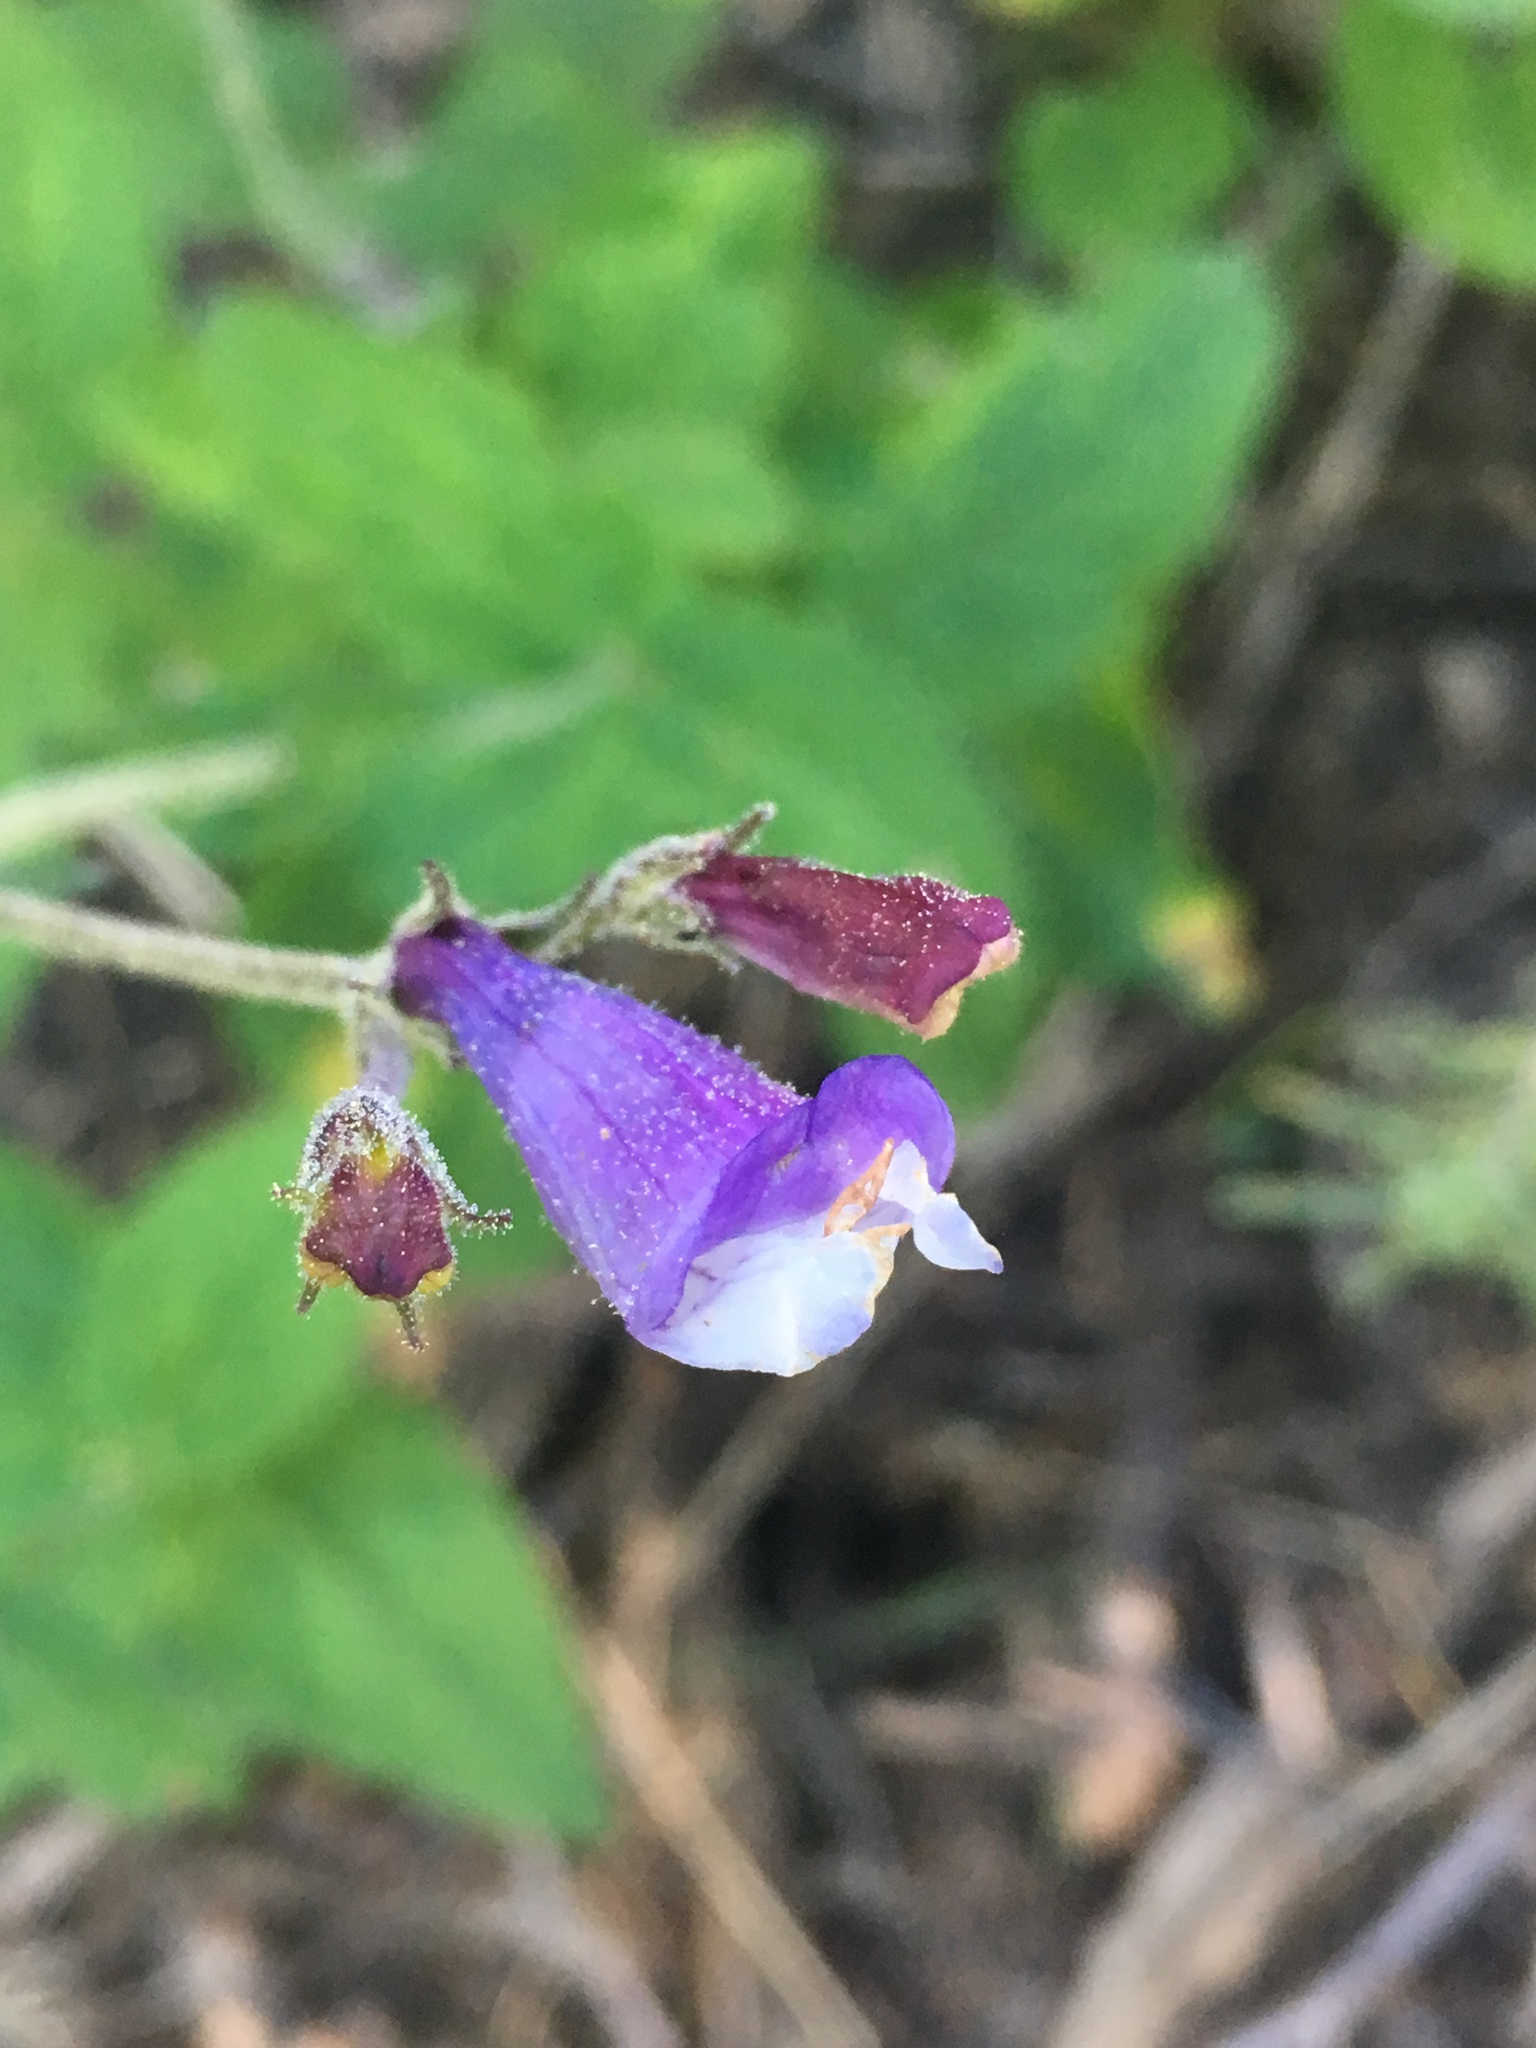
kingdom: Plantae
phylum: Tracheophyta
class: Magnoliopsida
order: Lamiales
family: Plantaginaceae
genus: Penstemon
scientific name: Penstemon personatus
